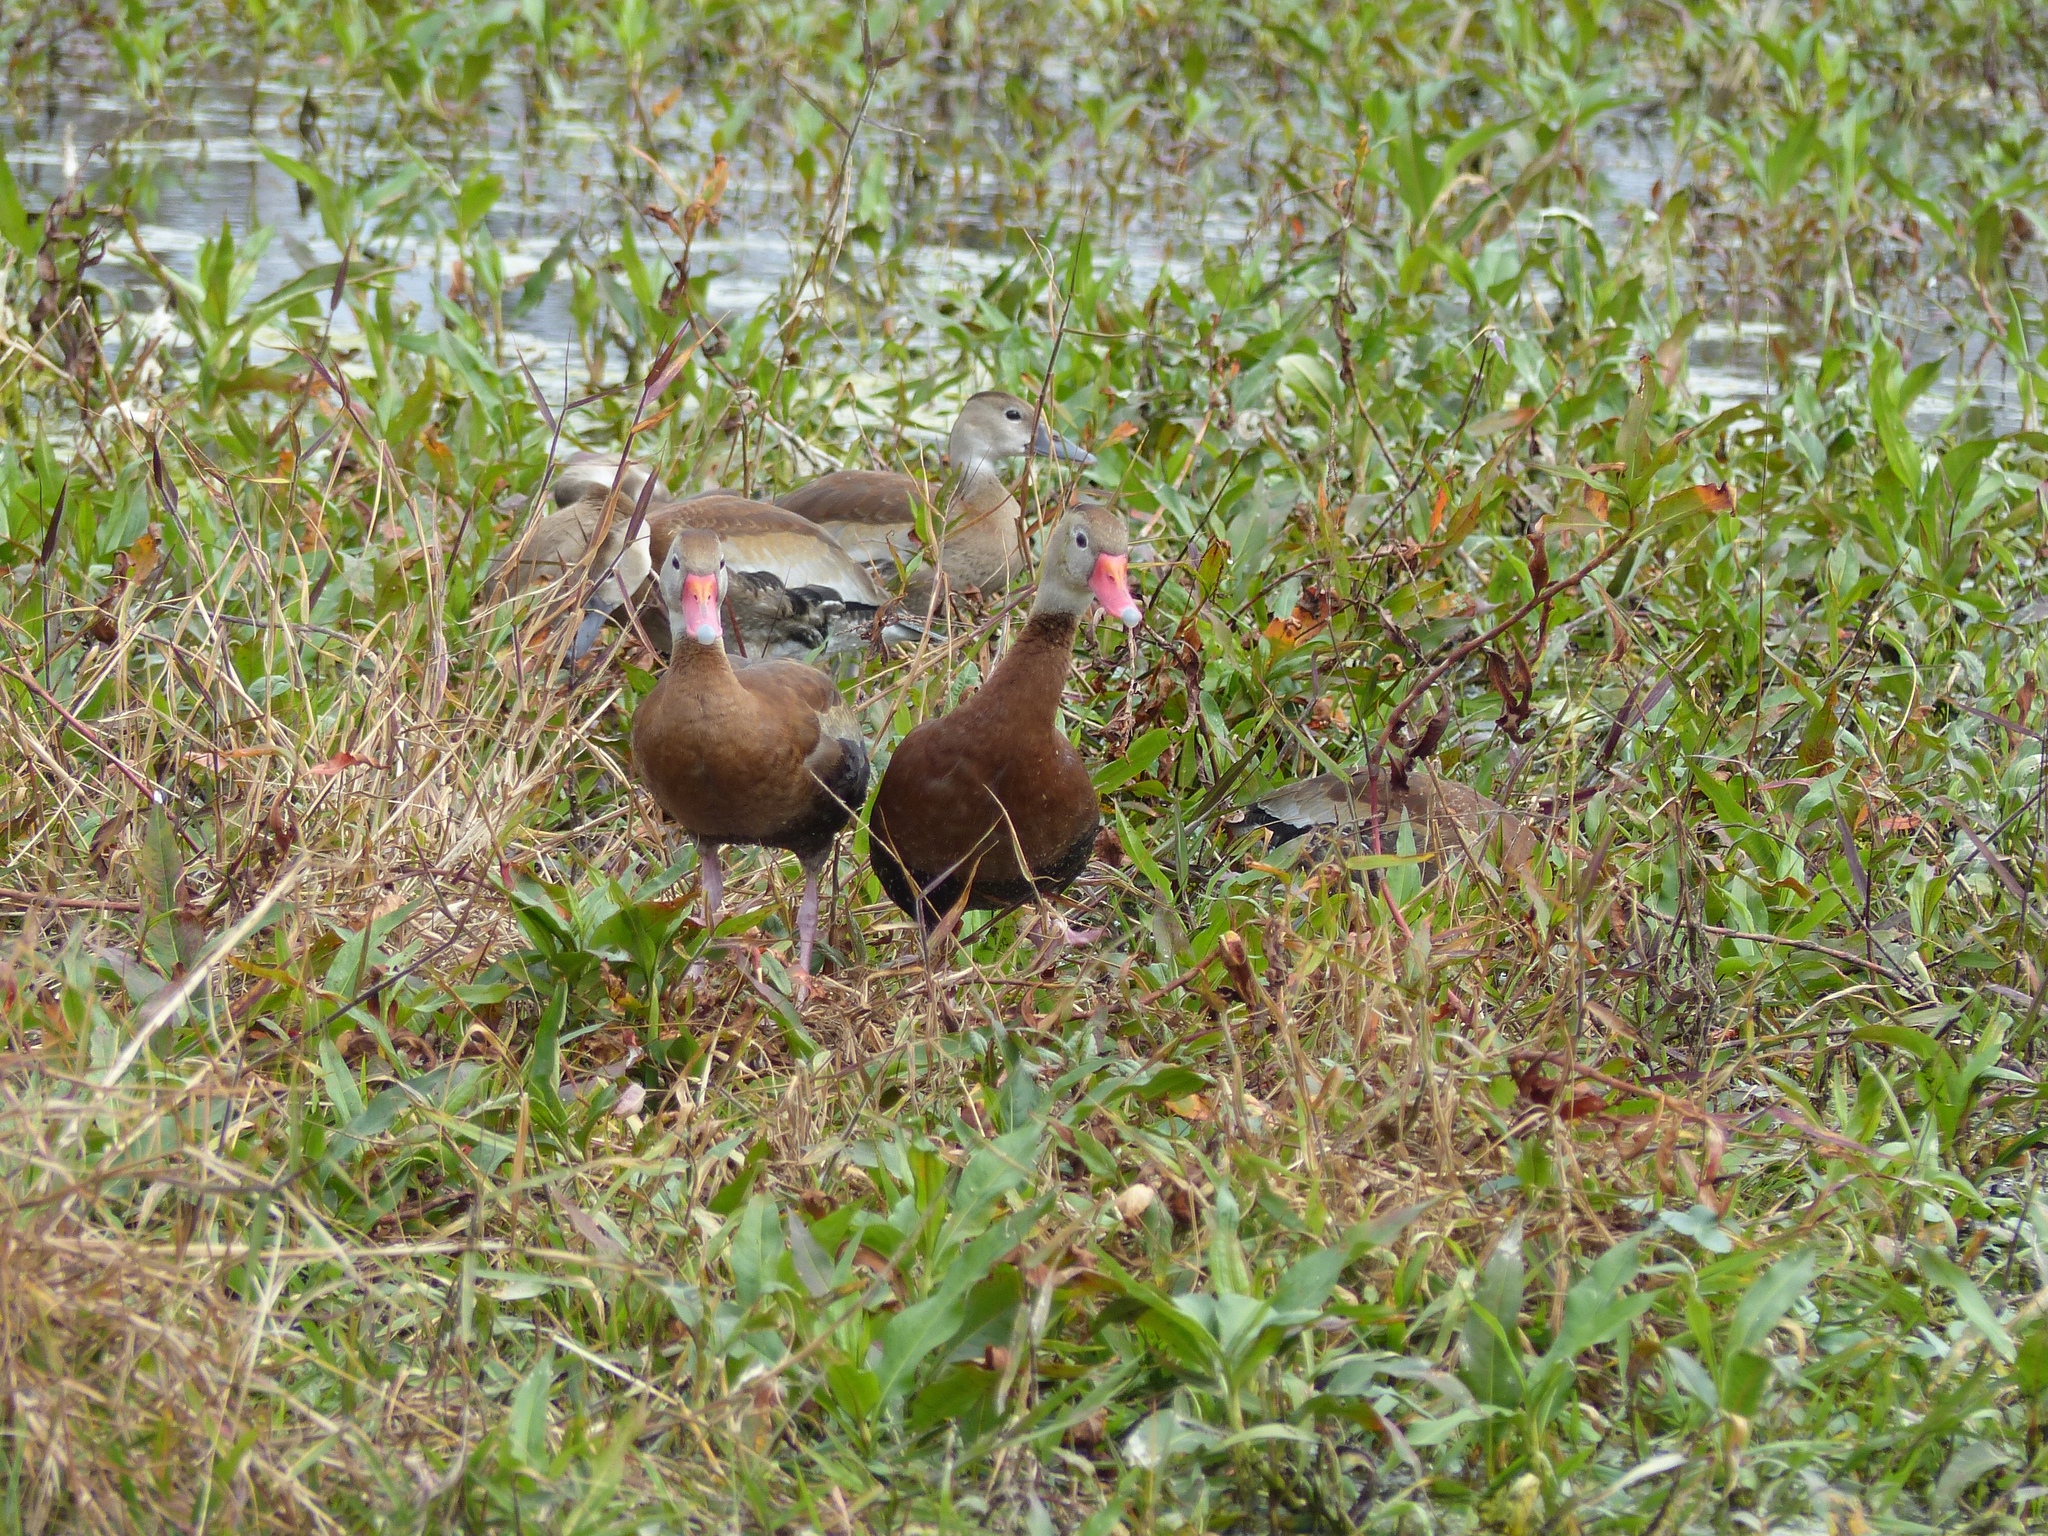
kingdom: Animalia
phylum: Chordata
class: Aves
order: Anseriformes
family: Anatidae
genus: Dendrocygna
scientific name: Dendrocygna autumnalis
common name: Black-bellied whistling duck
